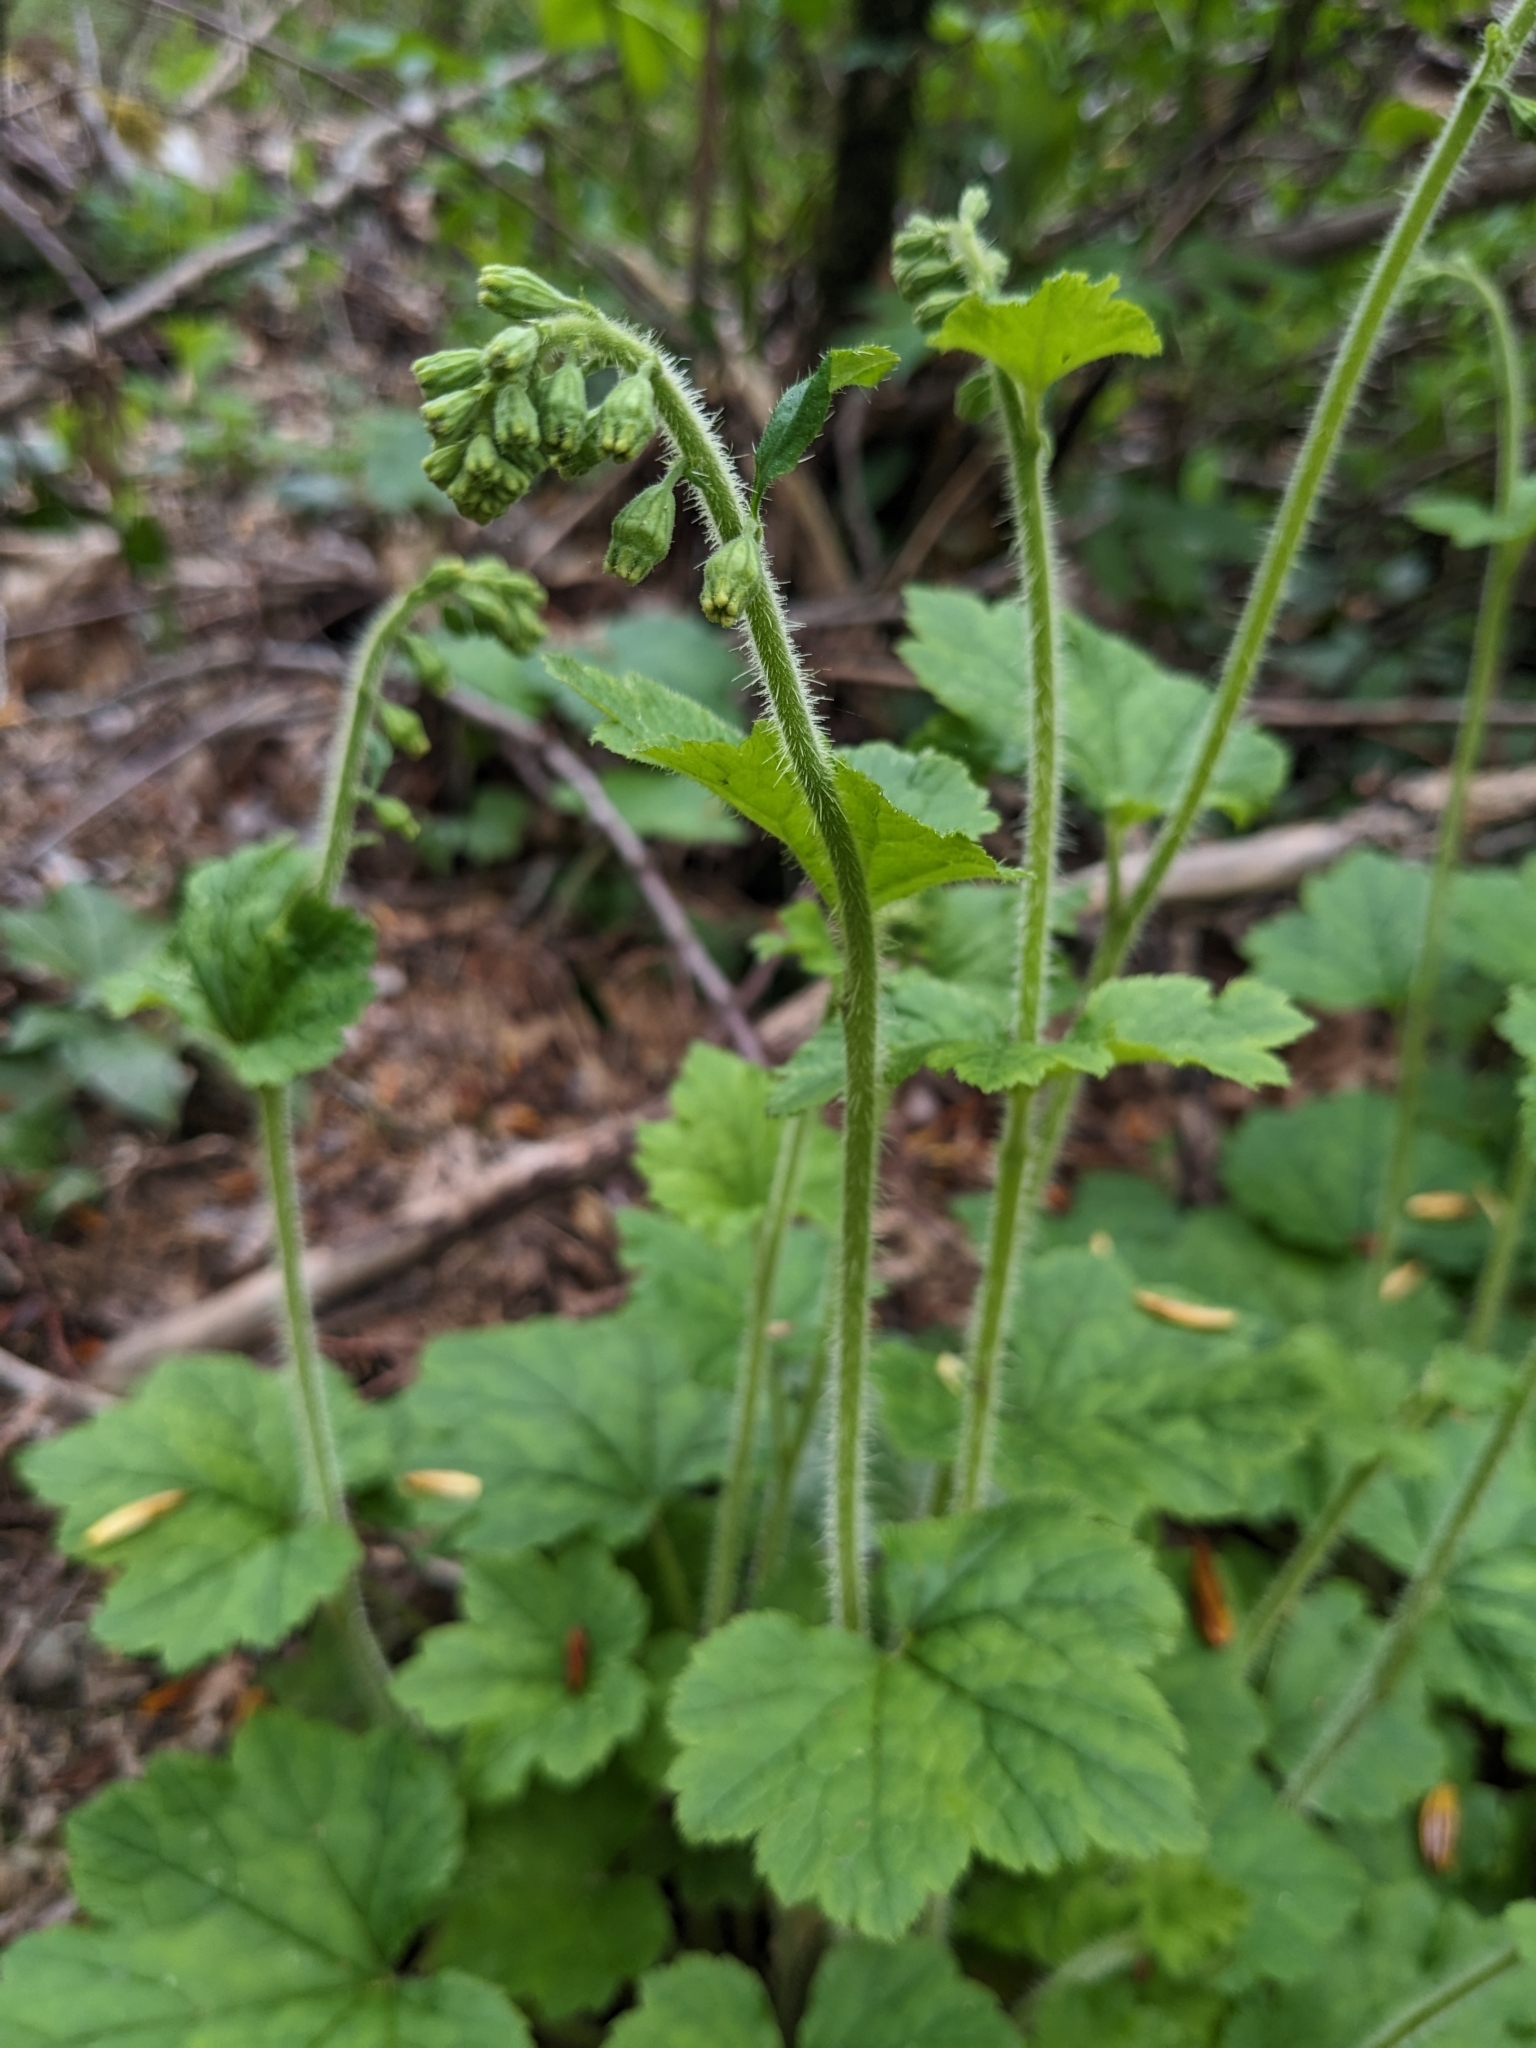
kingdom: Plantae
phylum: Tracheophyta
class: Magnoliopsida
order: Saxifragales
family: Saxifragaceae
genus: Tellima
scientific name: Tellima grandiflora
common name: Fringecups
